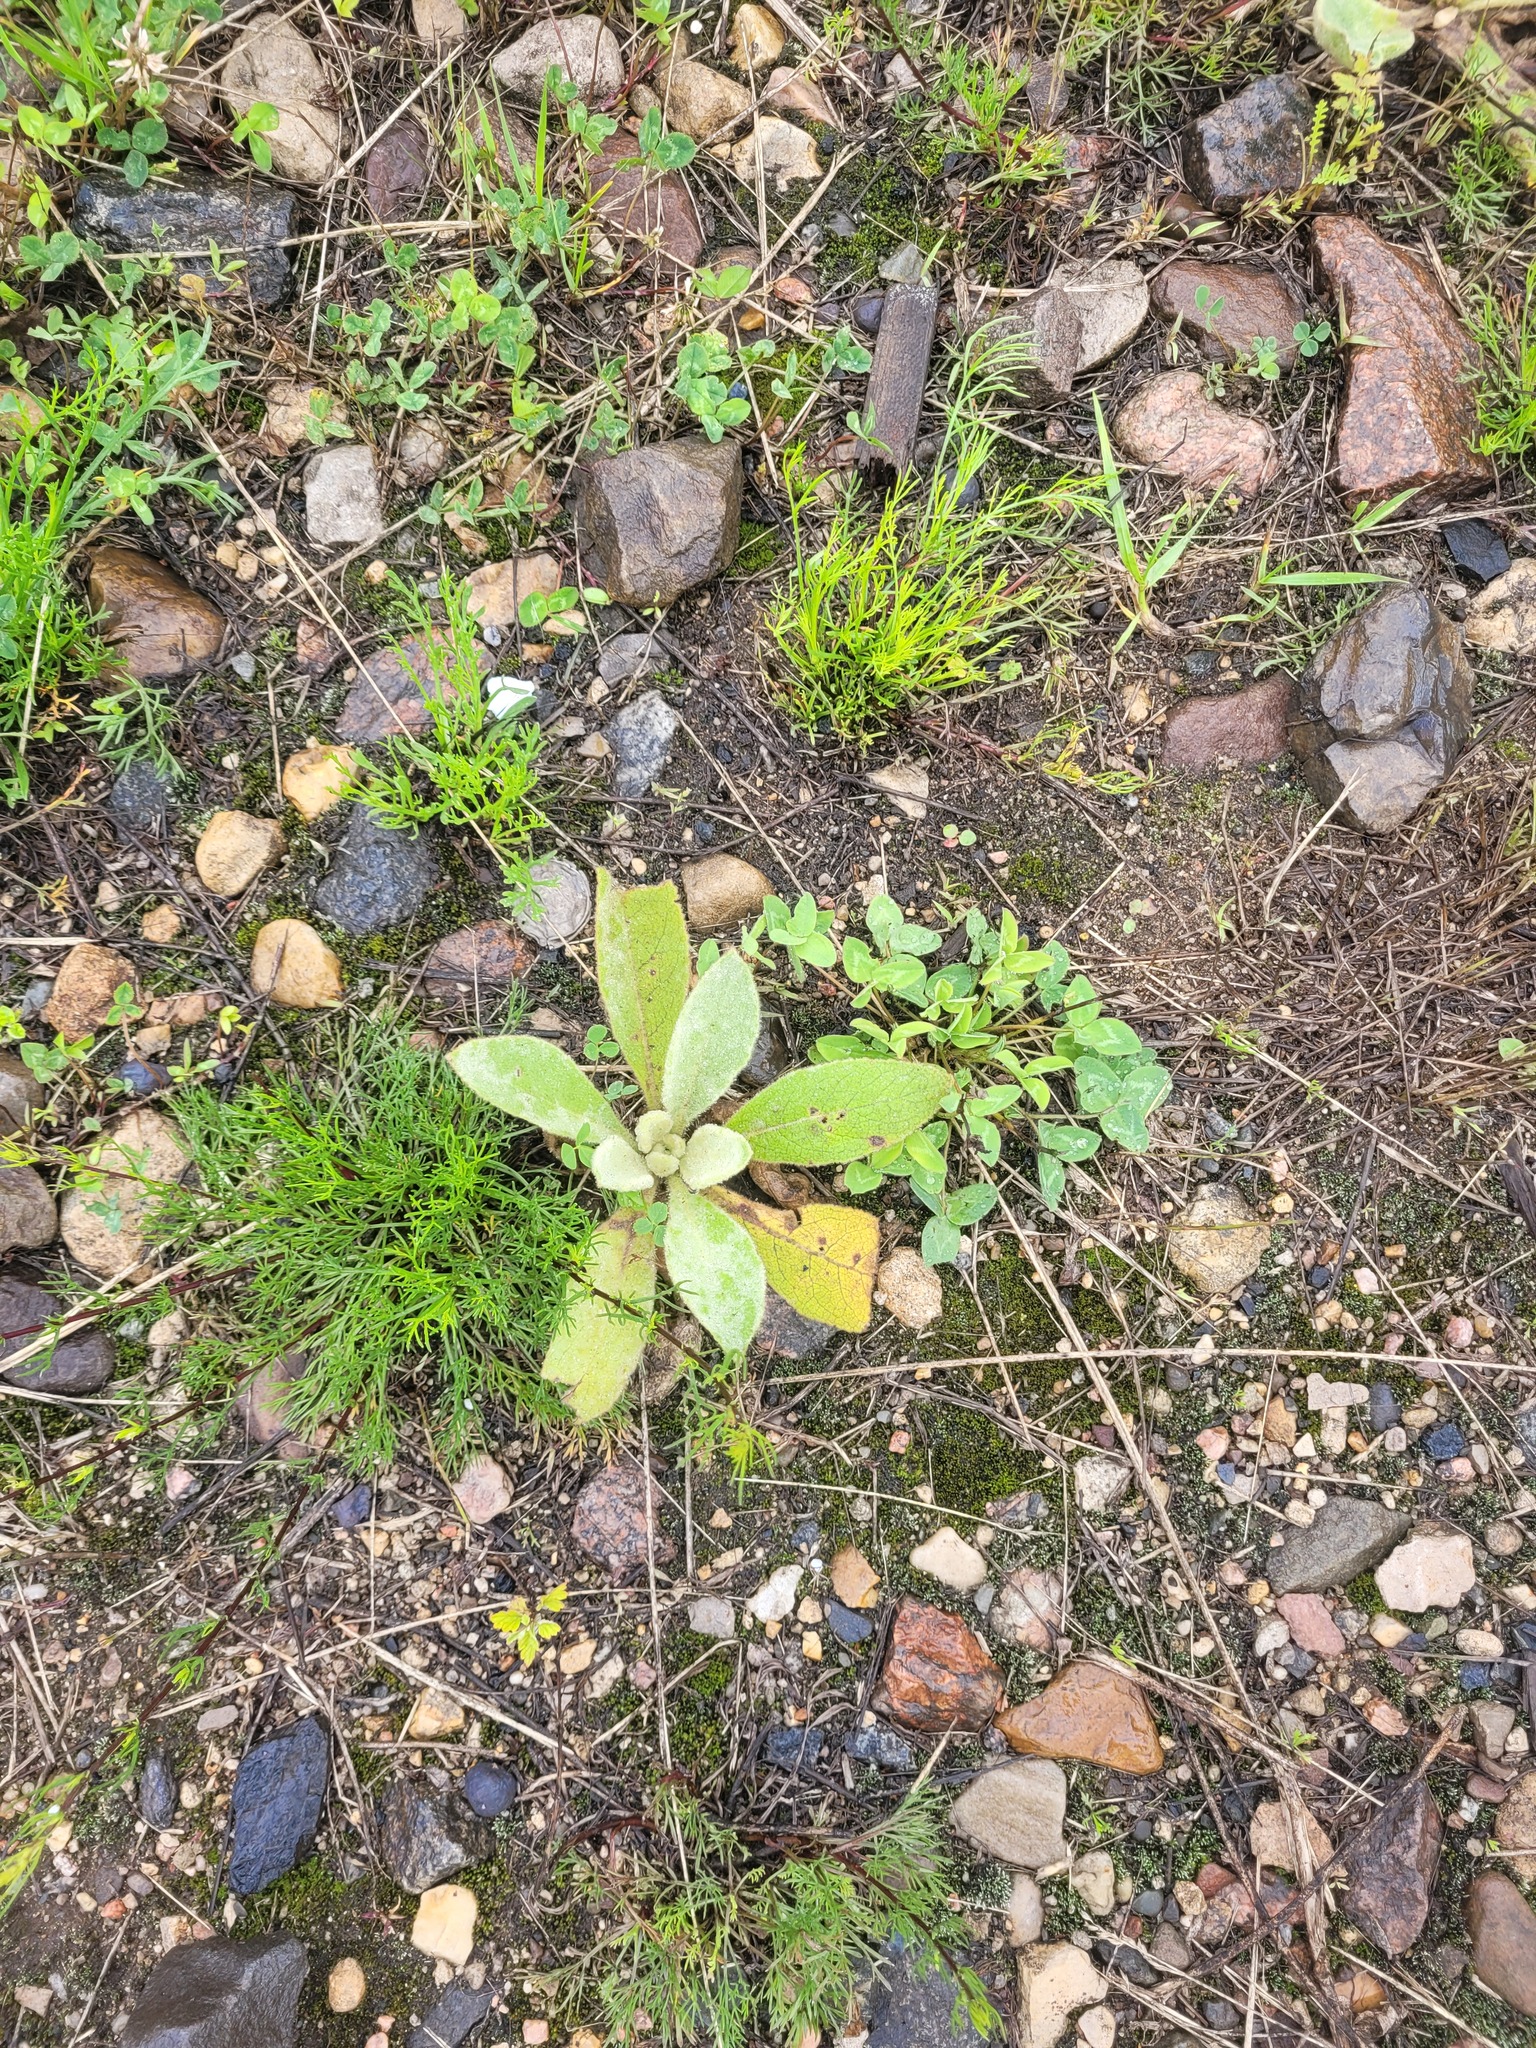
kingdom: Plantae
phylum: Tracheophyta
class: Magnoliopsida
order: Lamiales
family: Scrophulariaceae
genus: Verbascum
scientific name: Verbascum thapsus
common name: Common mullein
